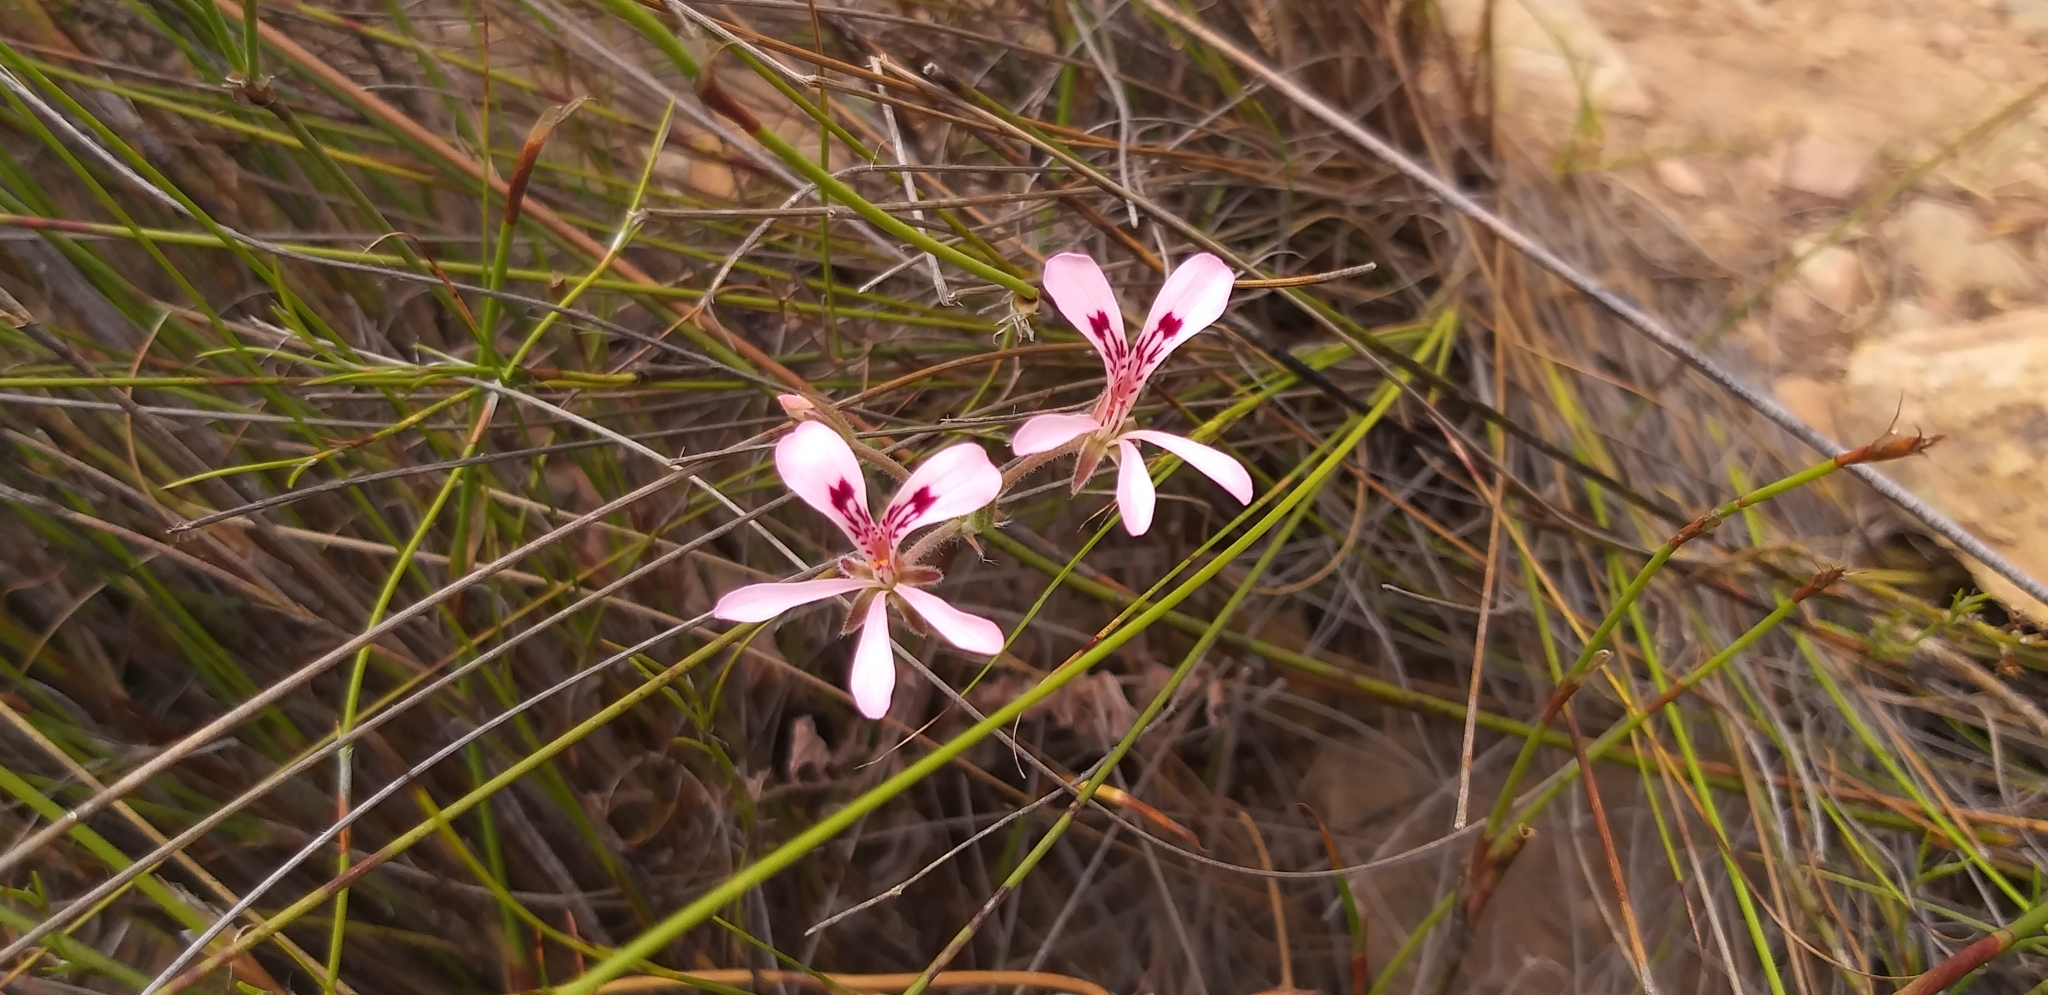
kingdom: Plantae
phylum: Tracheophyta
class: Magnoliopsida
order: Geraniales
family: Geraniaceae
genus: Pelargonium
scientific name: Pelargonium pinnatum
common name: Pinnated pelargonium
